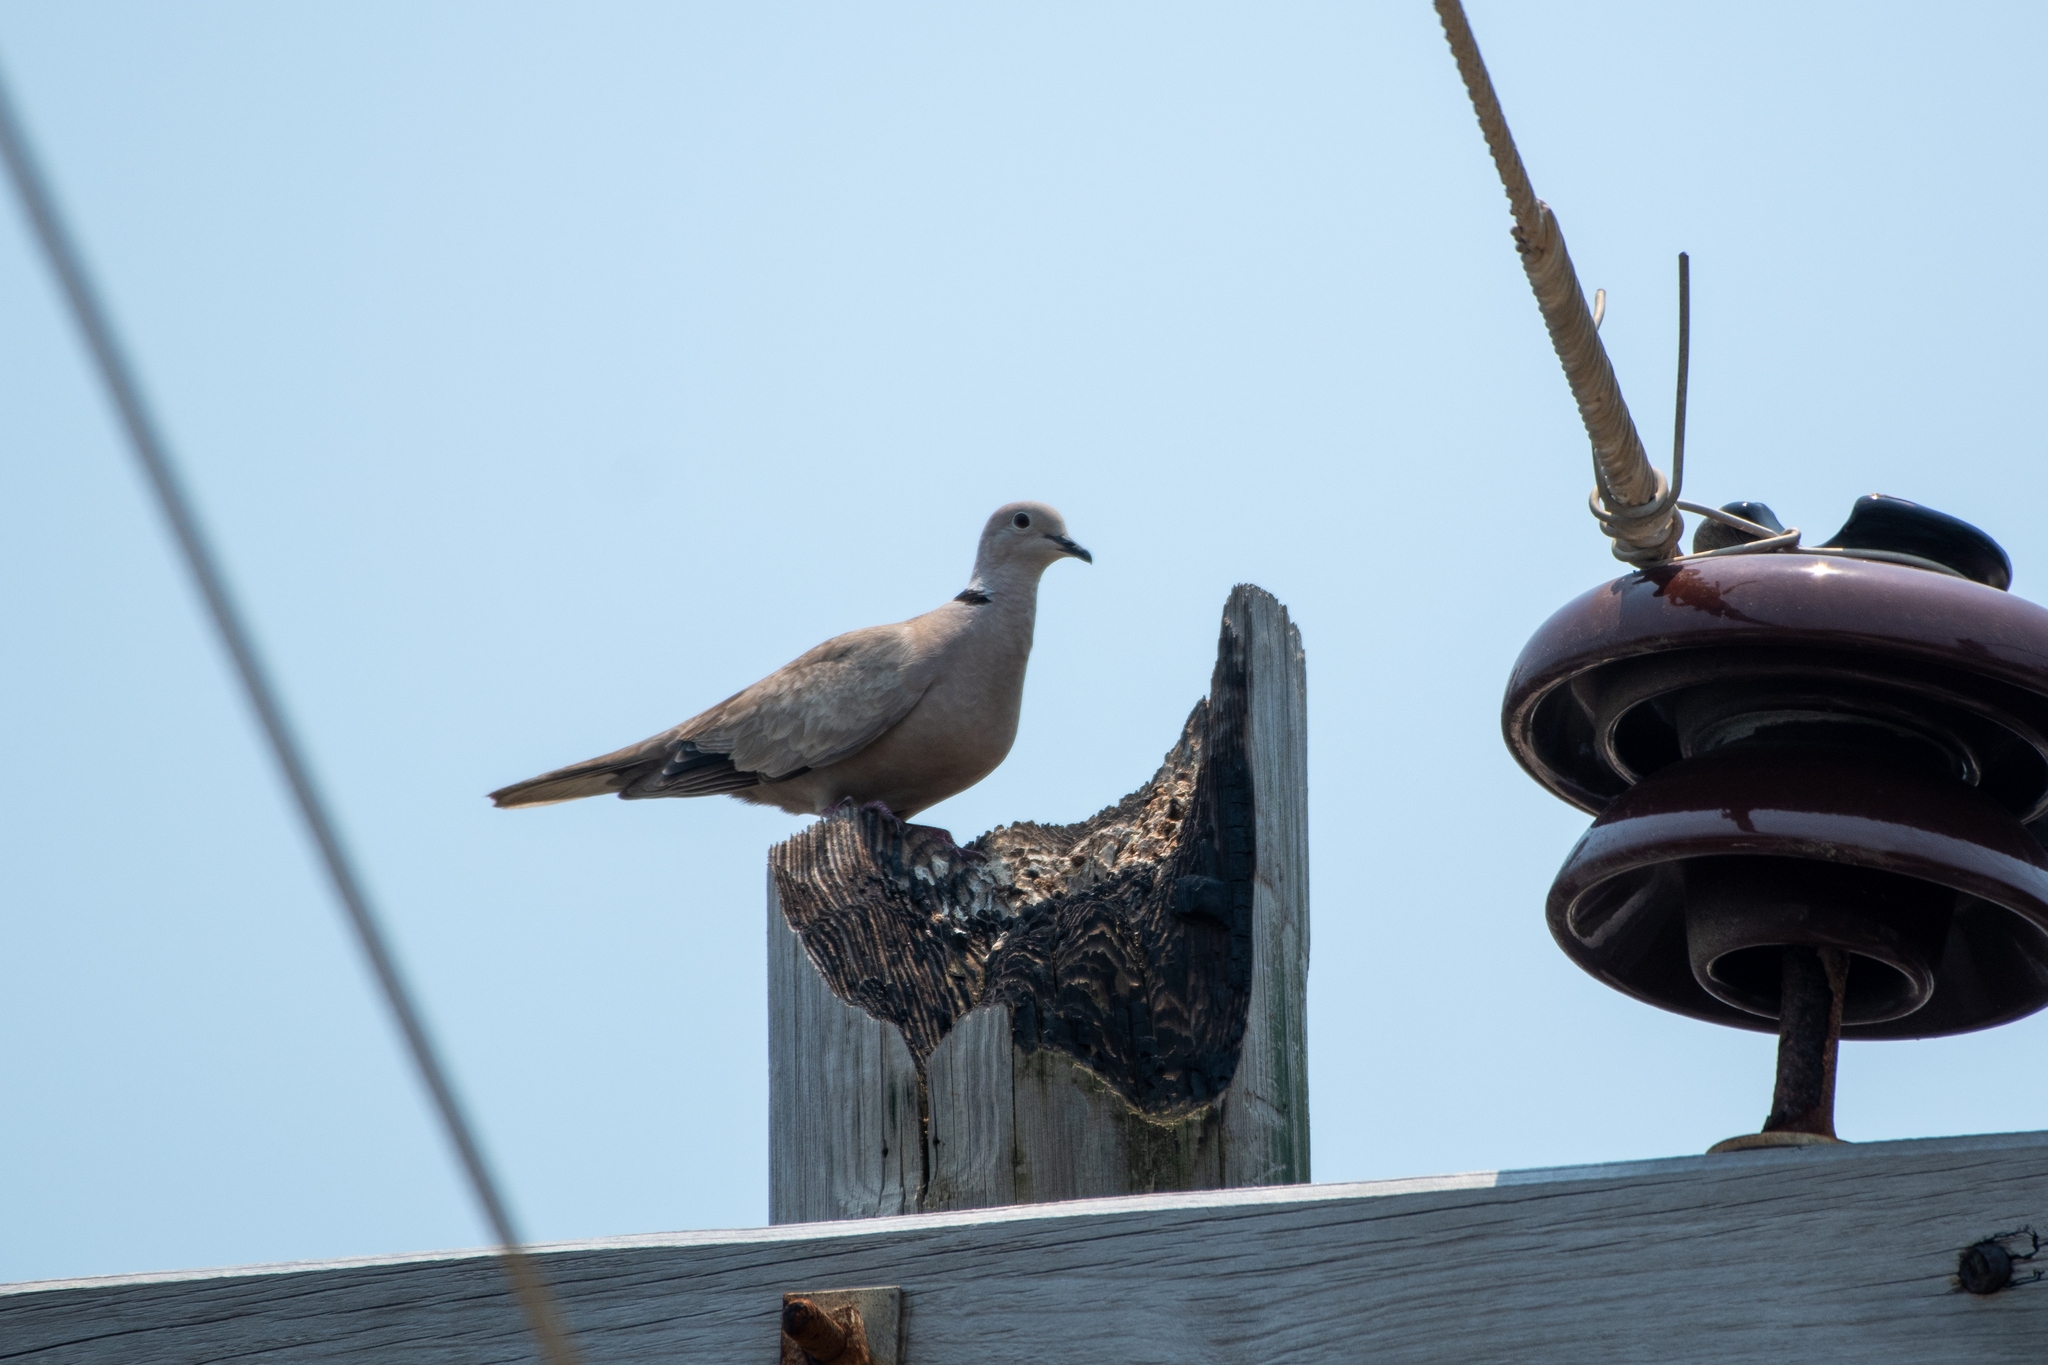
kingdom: Animalia
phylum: Chordata
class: Aves
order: Columbiformes
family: Columbidae
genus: Streptopelia
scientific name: Streptopelia decaocto
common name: Eurasian collared dove
